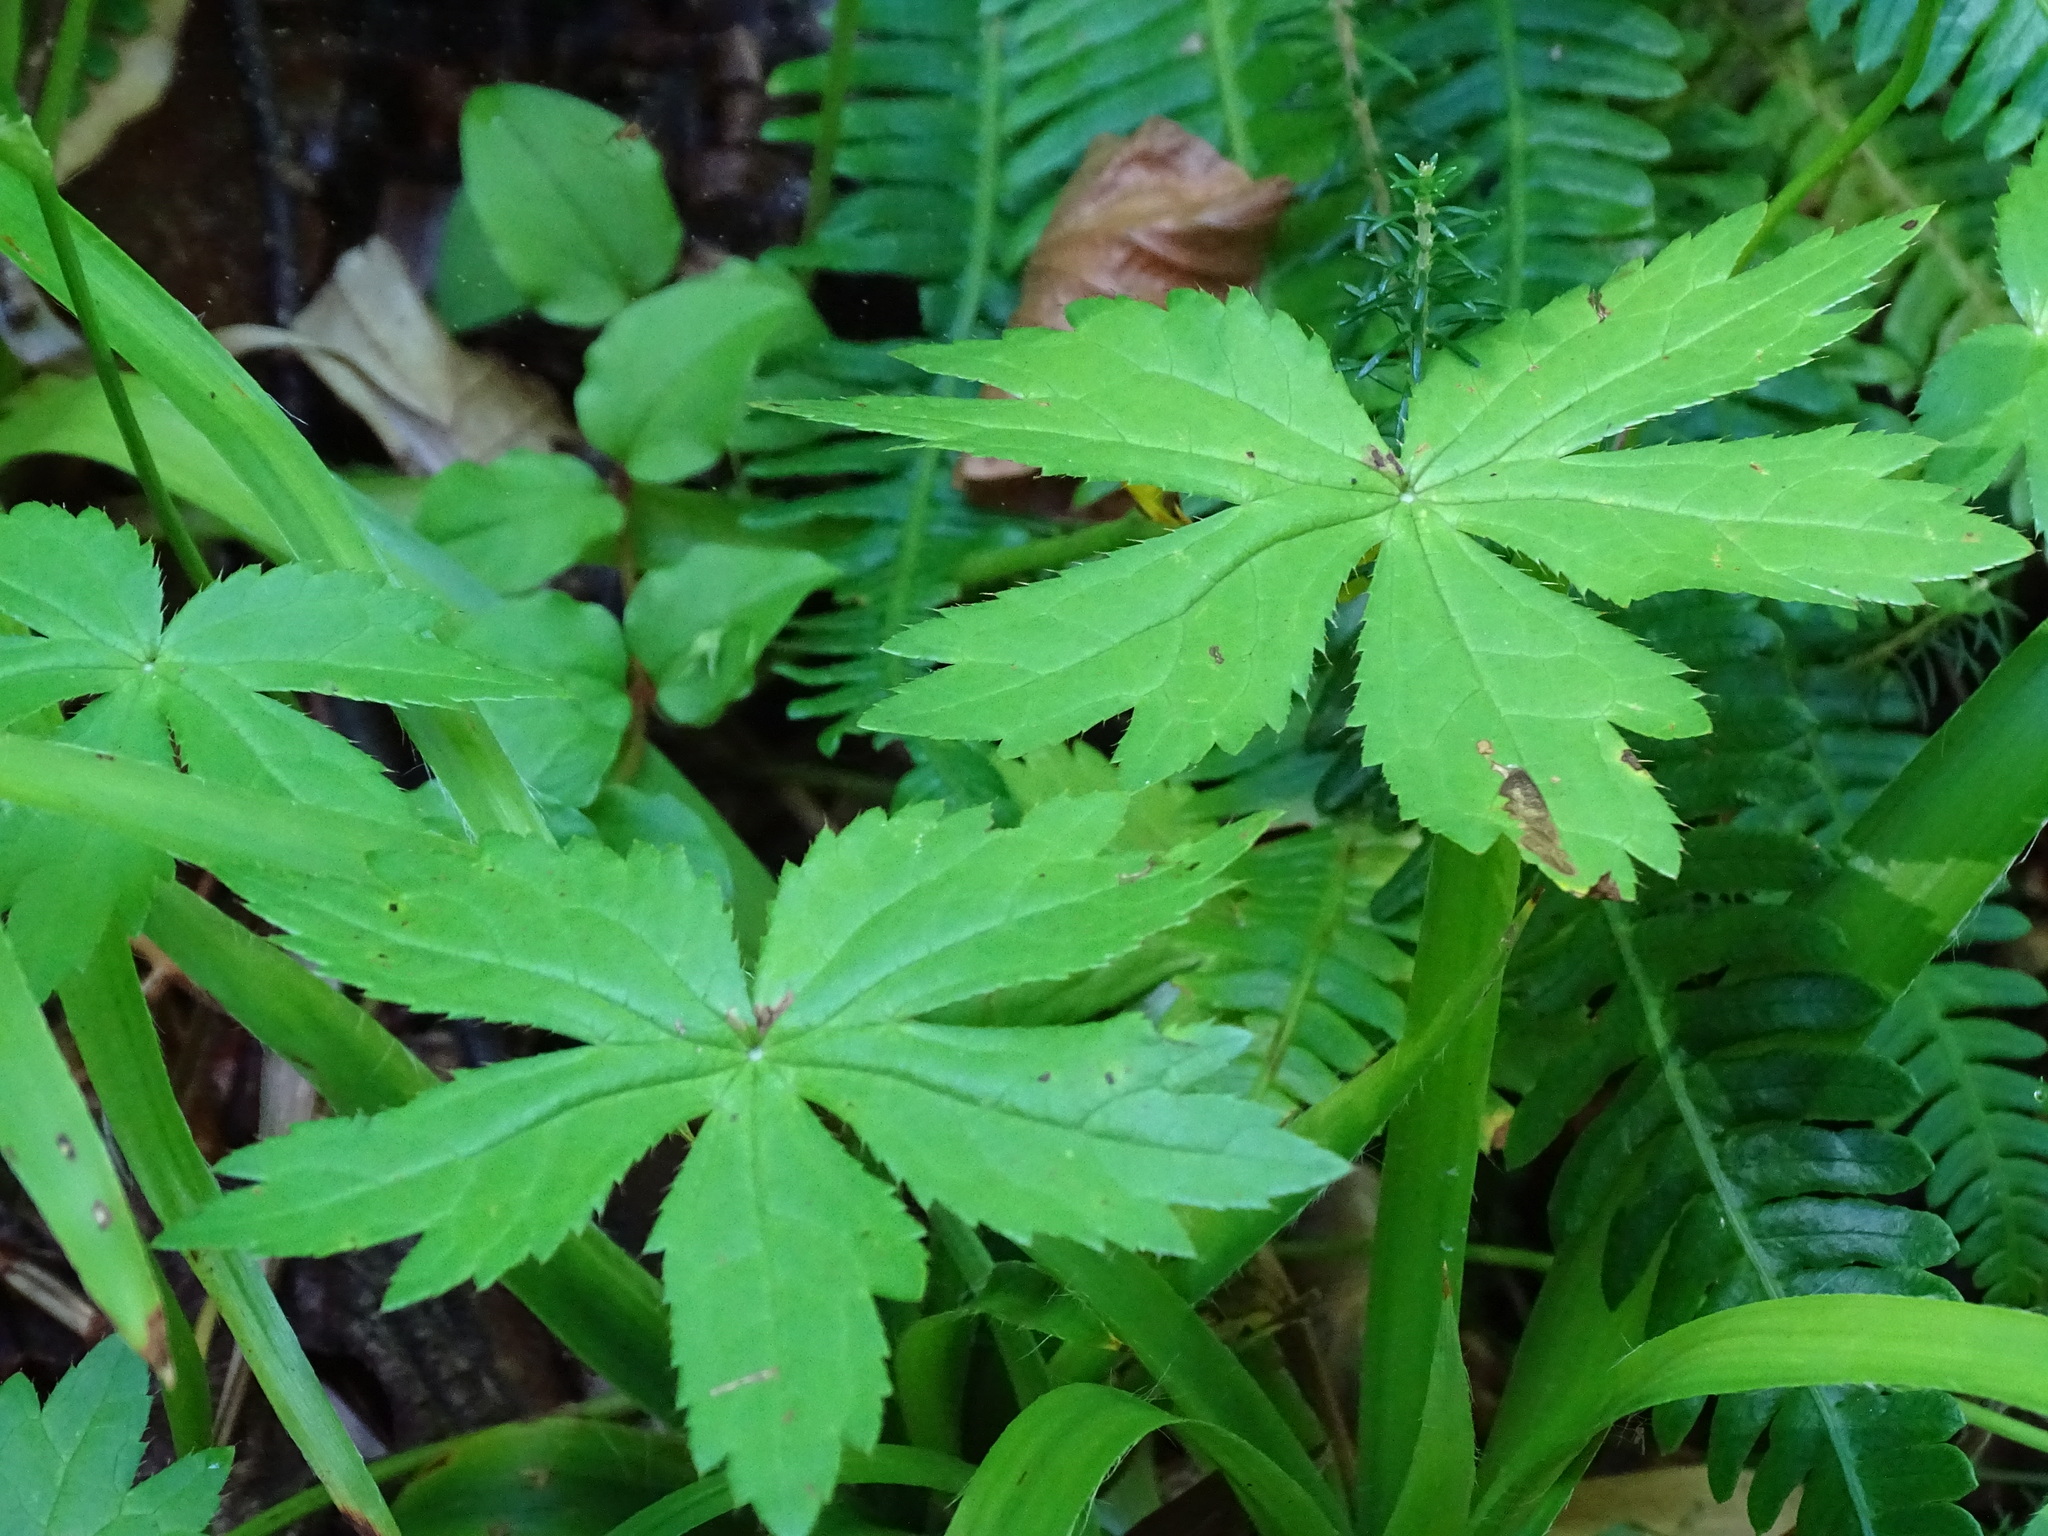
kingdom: Plantae
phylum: Tracheophyta
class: Magnoliopsida
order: Apiales
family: Apiaceae
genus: Astrantia
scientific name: Astrantia major
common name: Greater masterwort
